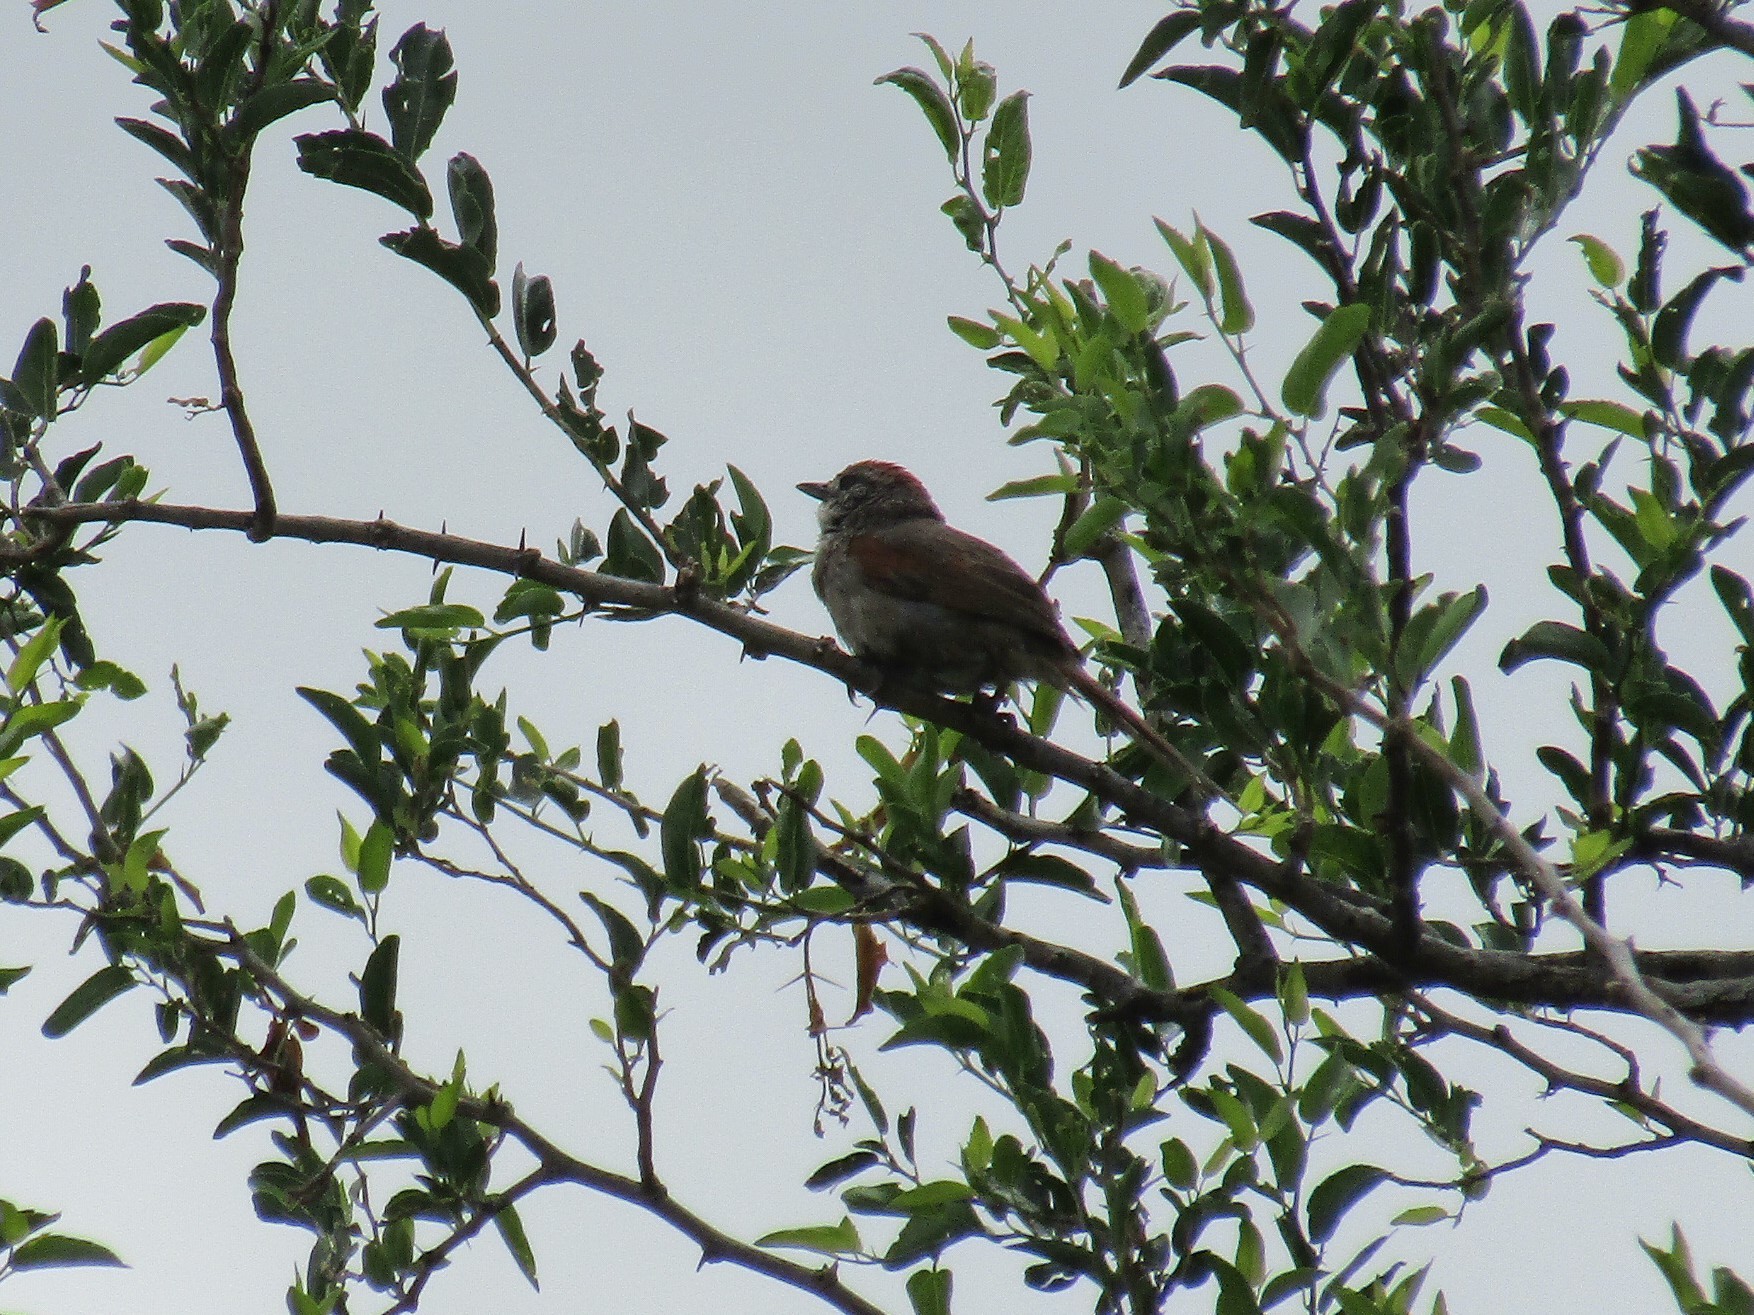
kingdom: Animalia
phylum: Chordata
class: Aves
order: Passeriformes
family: Furnariidae
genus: Synallaxis
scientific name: Synallaxis albescens
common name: Pale-breasted spinetail
